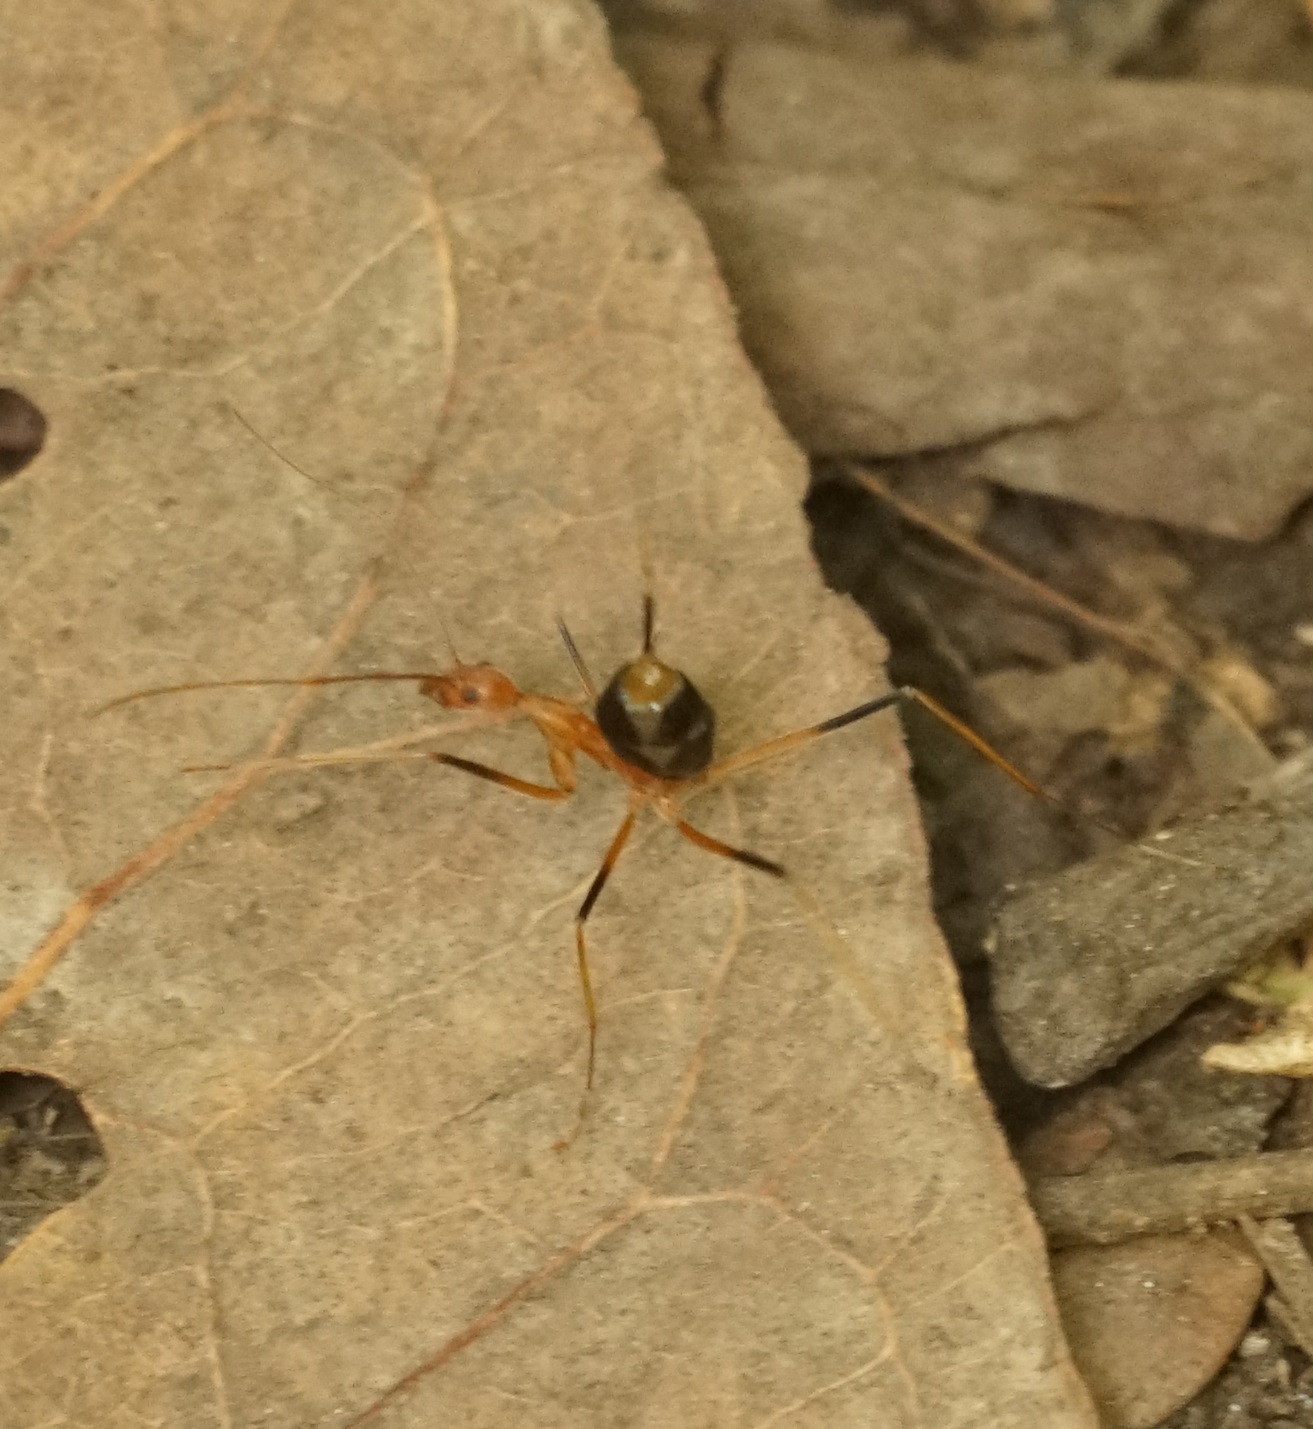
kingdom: Animalia
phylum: Arthropoda
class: Insecta
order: Hymenoptera
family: Formicidae
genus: Leptomyrmex
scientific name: Leptomyrmex rufipes
